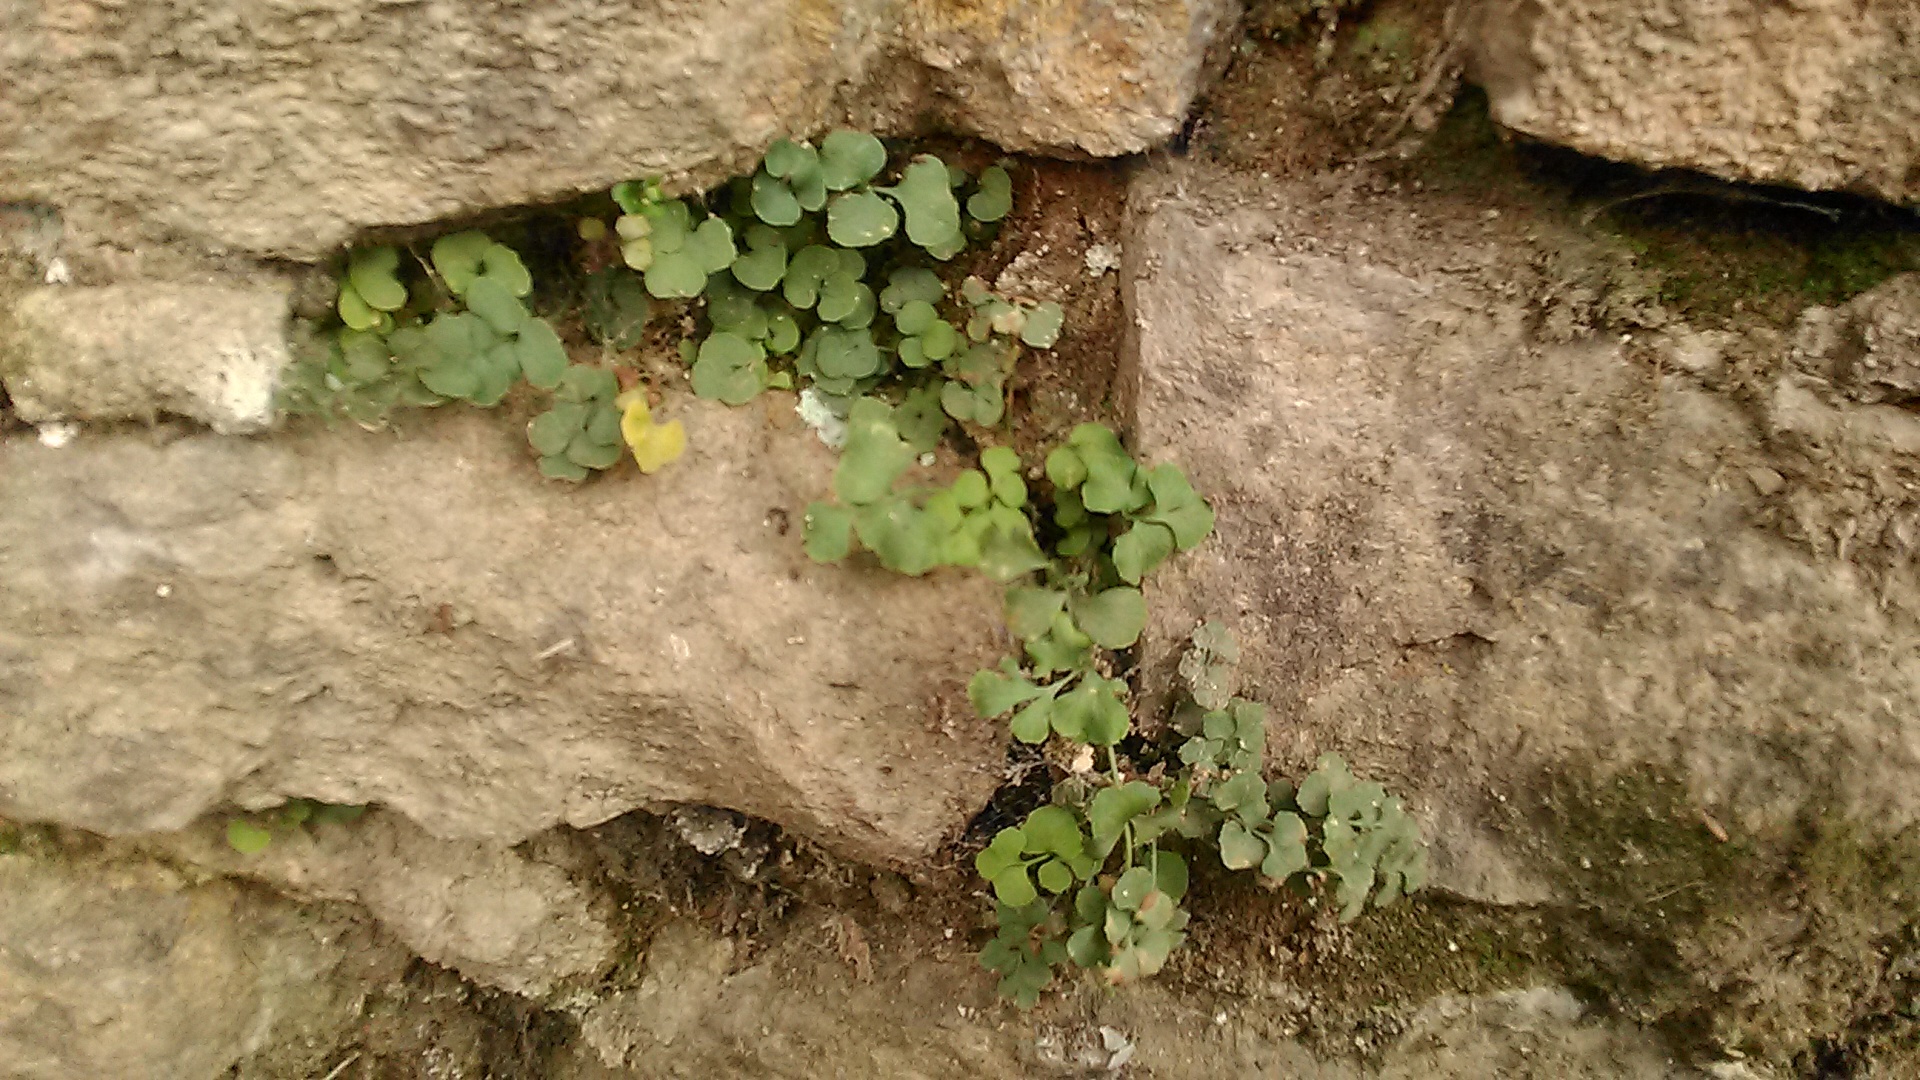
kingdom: Plantae
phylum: Tracheophyta
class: Polypodiopsida
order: Polypodiales
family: Aspleniaceae
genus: Asplenium
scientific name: Asplenium ruta-muraria
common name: Wall-rue
